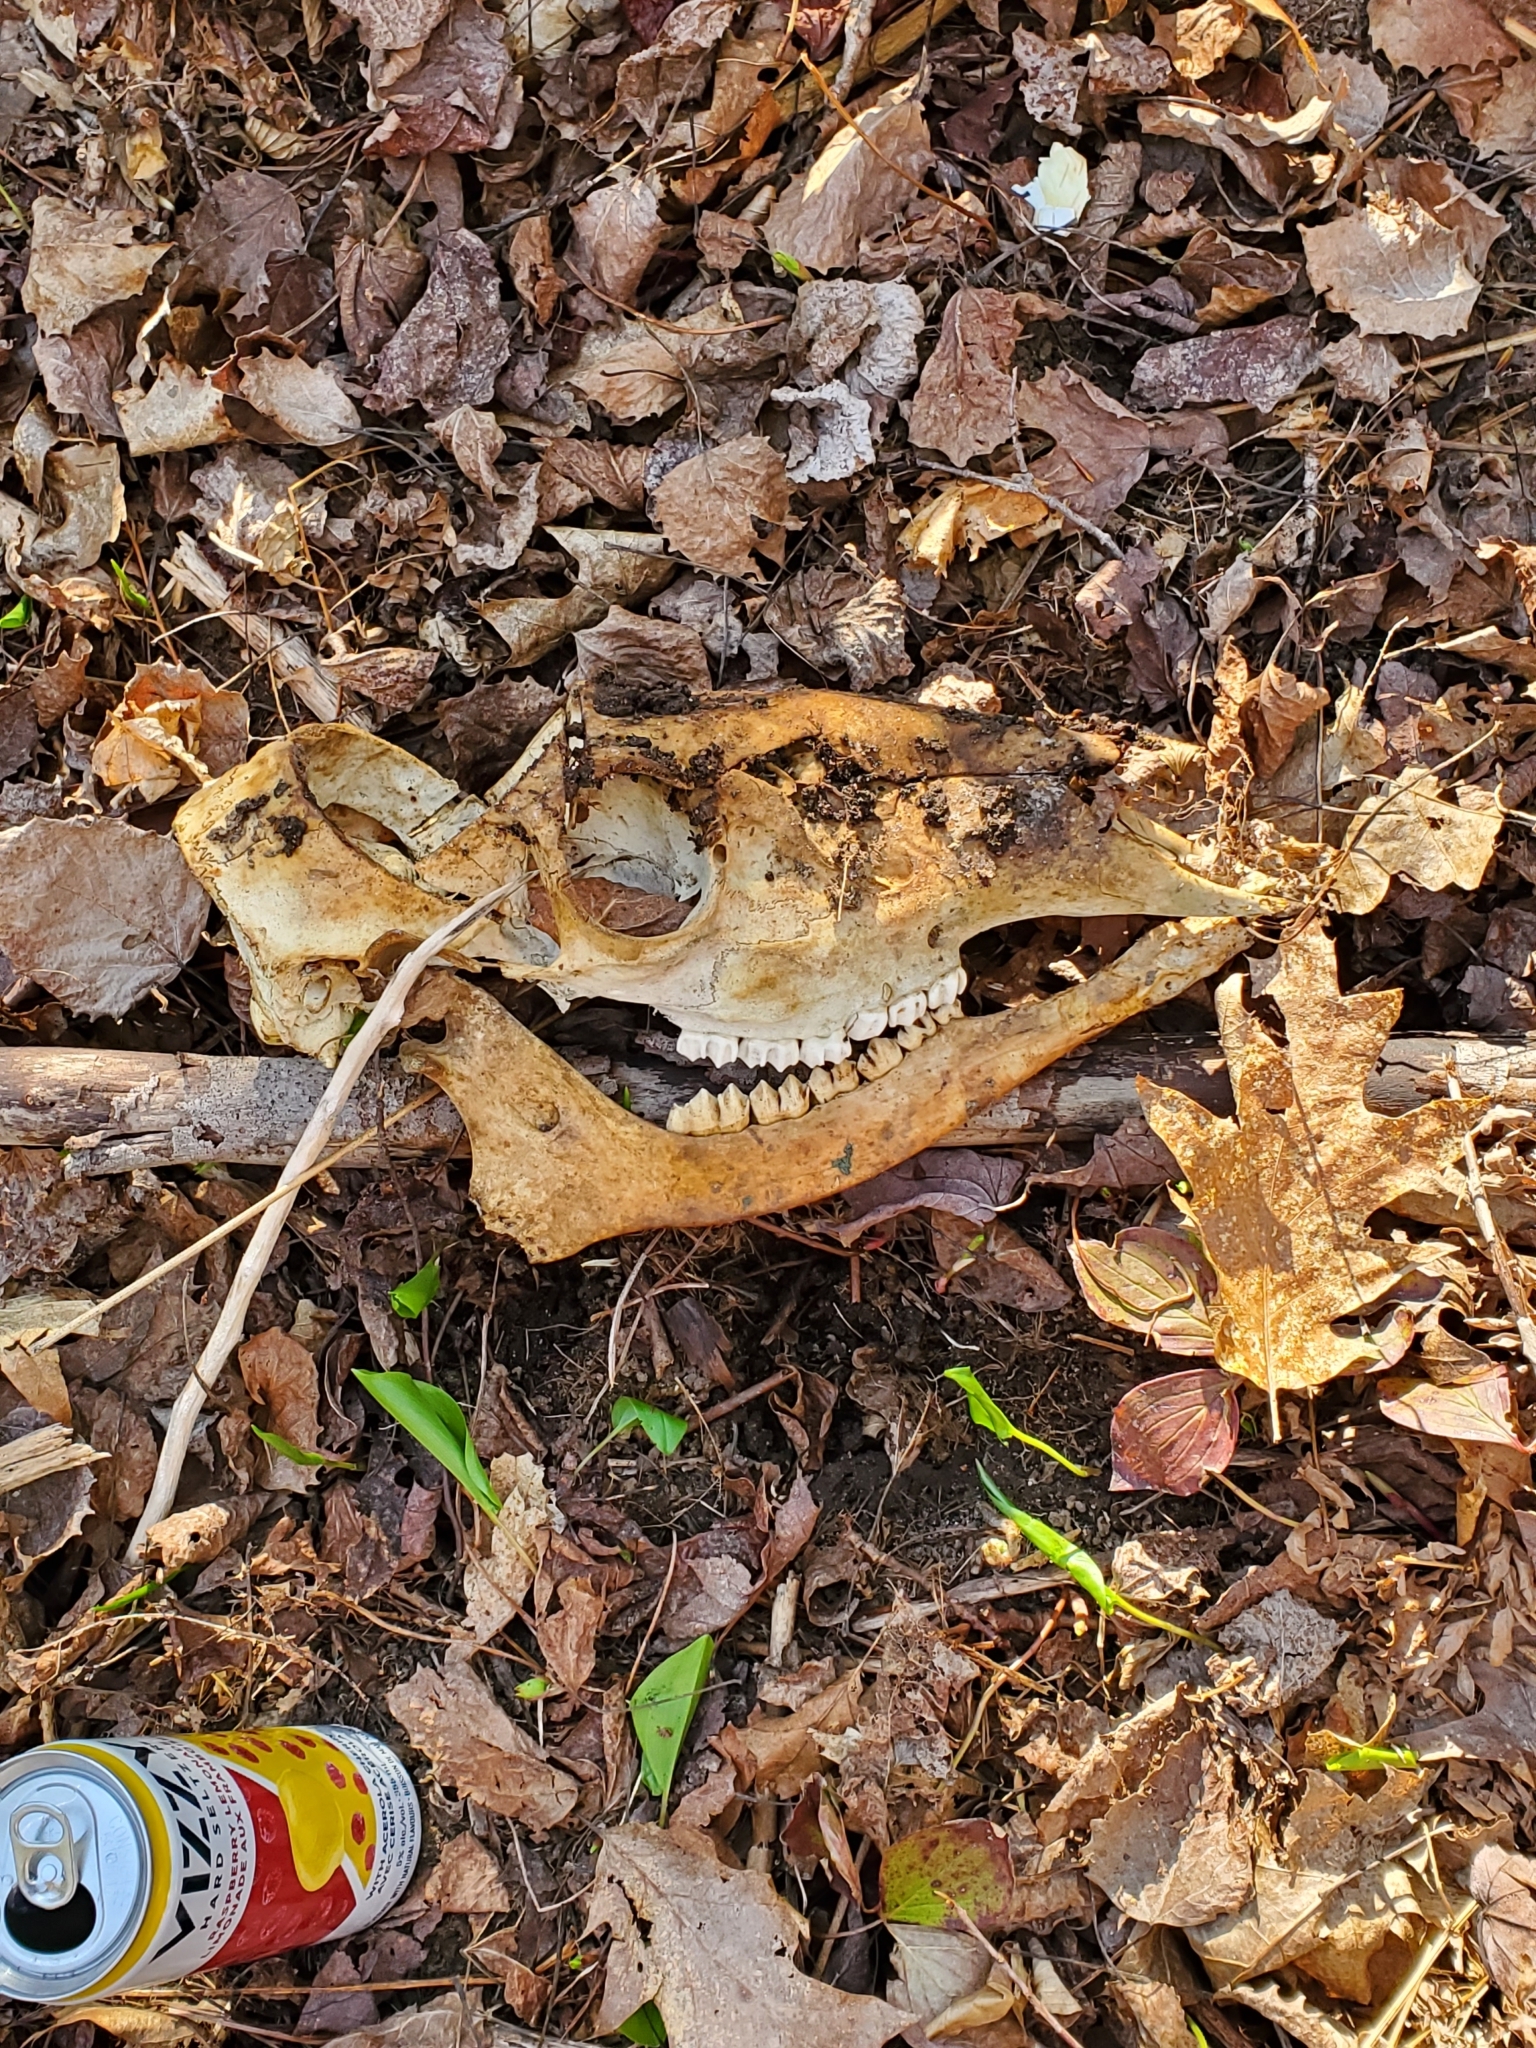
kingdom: Animalia
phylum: Chordata
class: Mammalia
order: Artiodactyla
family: Cervidae
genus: Odocoileus
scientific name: Odocoileus virginianus
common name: White-tailed deer
